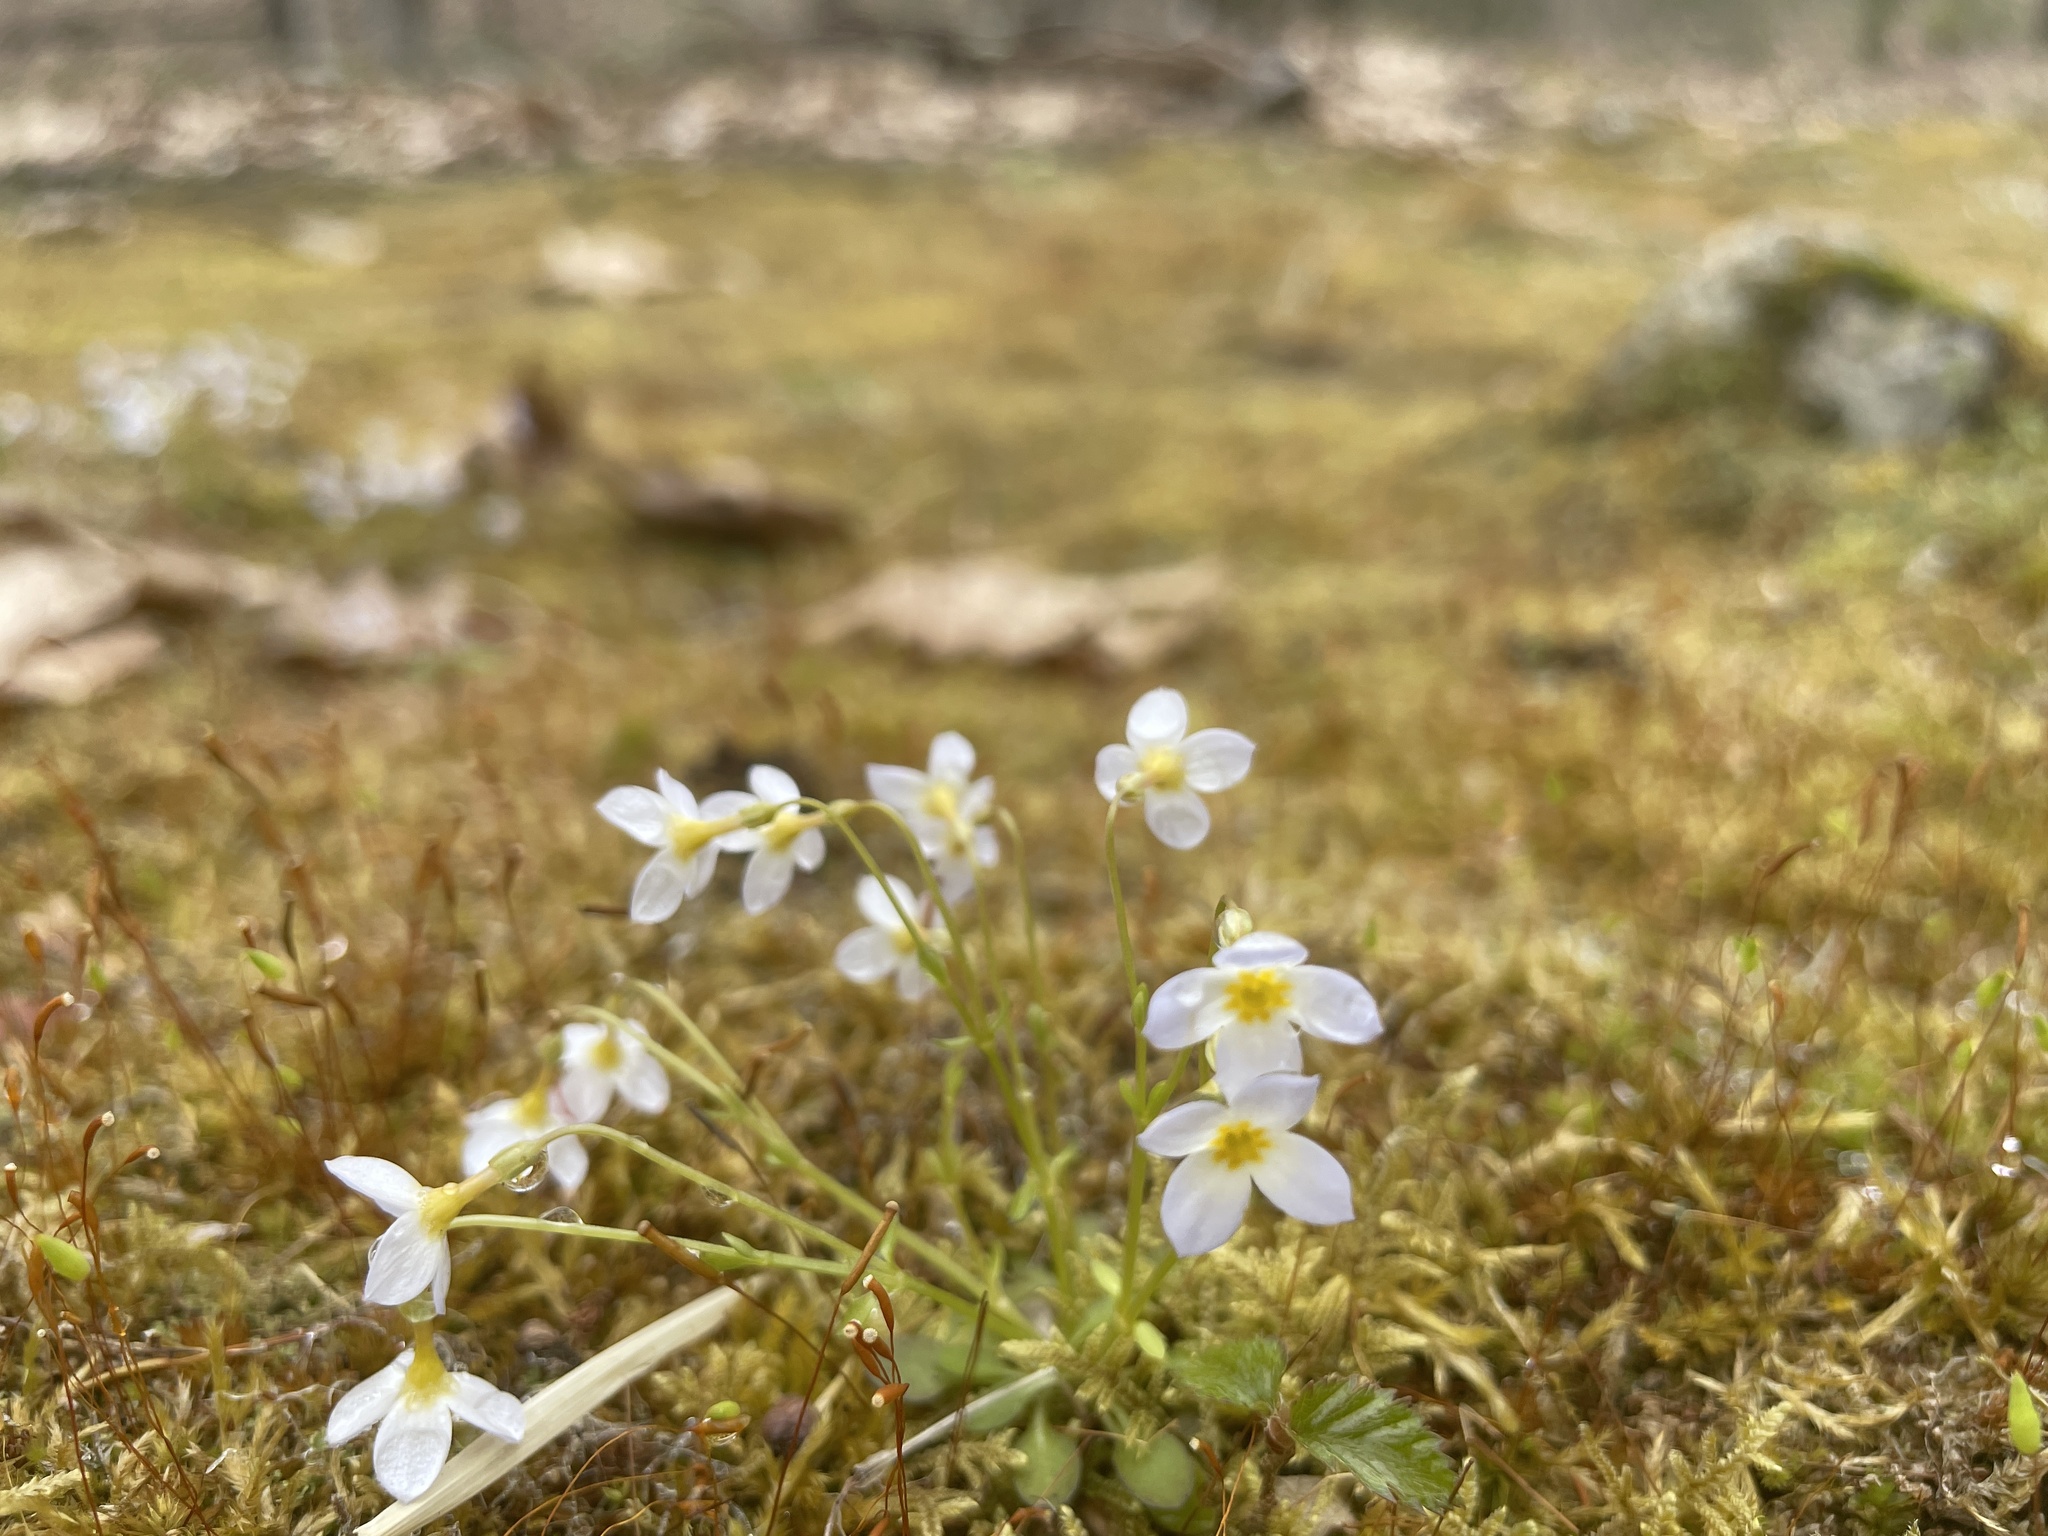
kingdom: Plantae
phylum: Tracheophyta
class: Magnoliopsida
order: Gentianales
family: Rubiaceae
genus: Houstonia
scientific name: Houstonia caerulea
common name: Bluets
